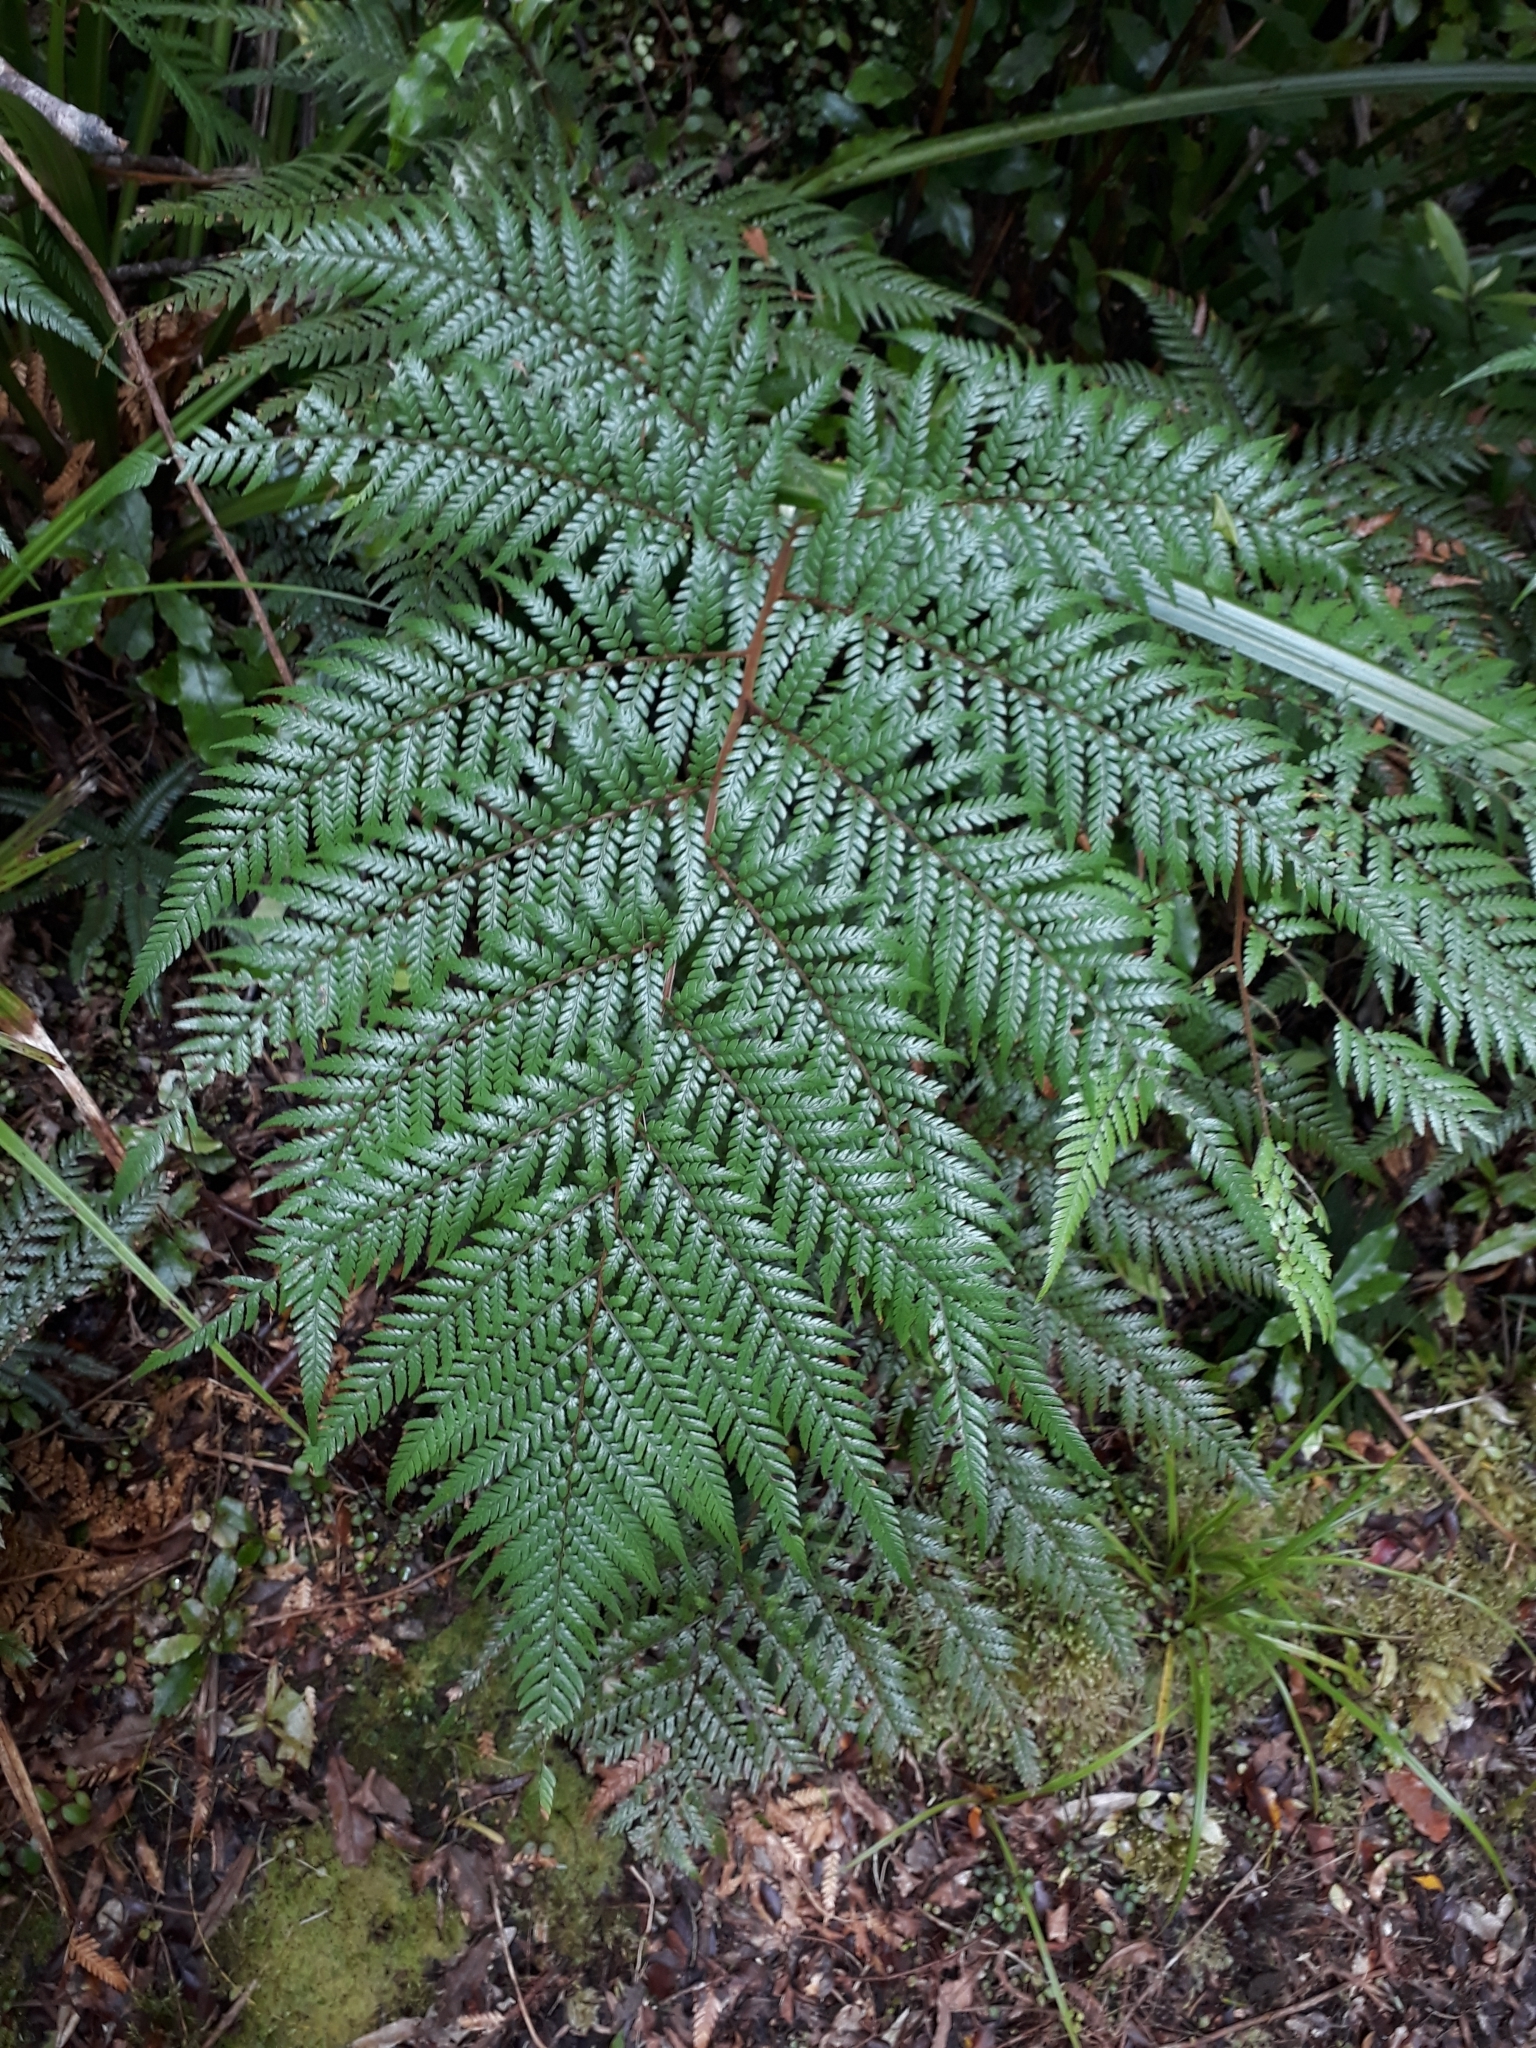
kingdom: Plantae
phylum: Tracheophyta
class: Polypodiopsida
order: Cyatheales
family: Dicksoniaceae
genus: Dicksonia
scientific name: Dicksonia lanata
